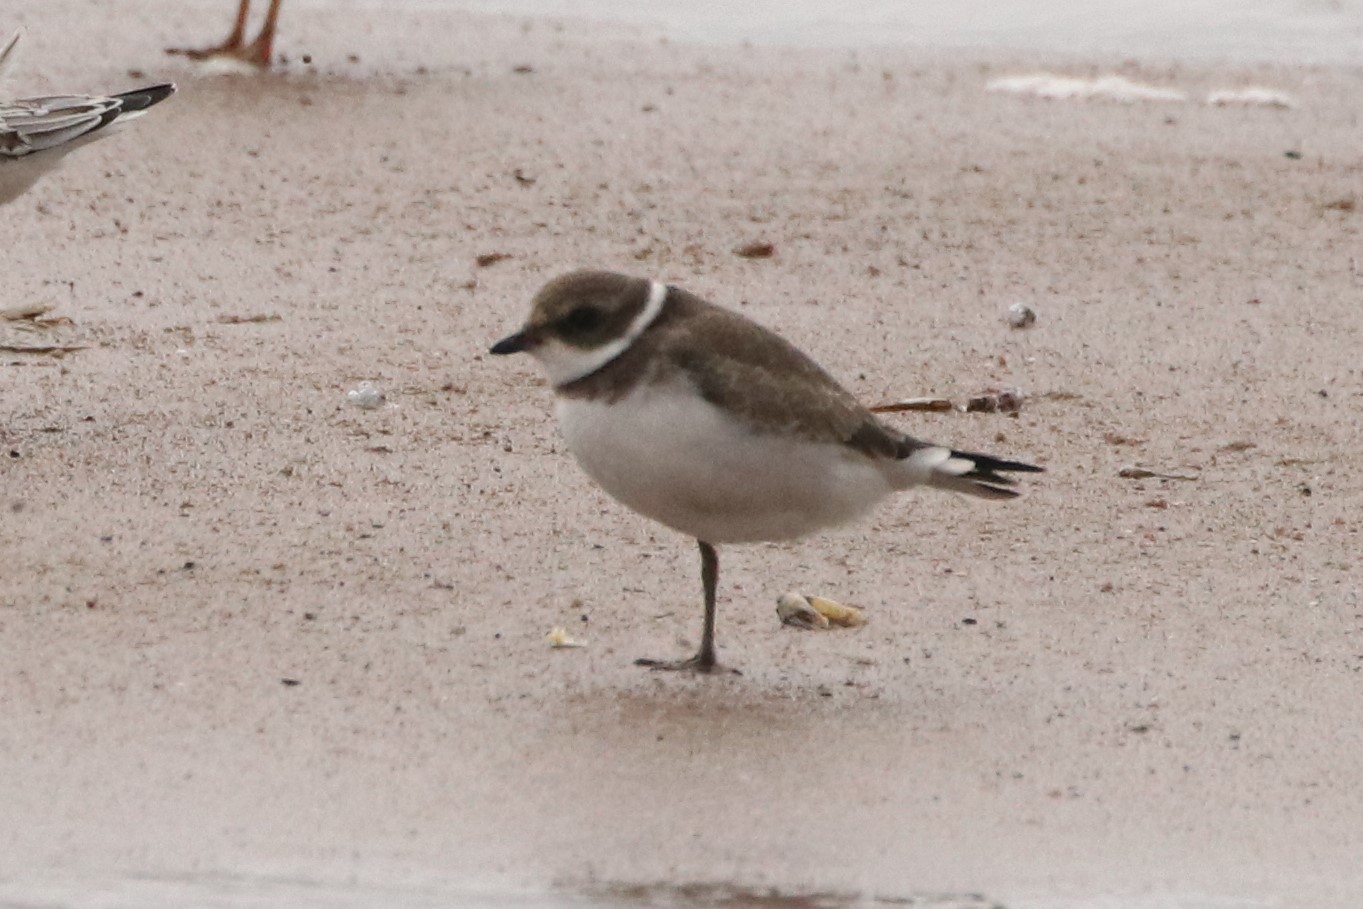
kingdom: Animalia
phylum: Chordata
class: Aves
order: Charadriiformes
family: Charadriidae
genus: Charadrius
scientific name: Charadrius semipalmatus
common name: Semipalmated plover
